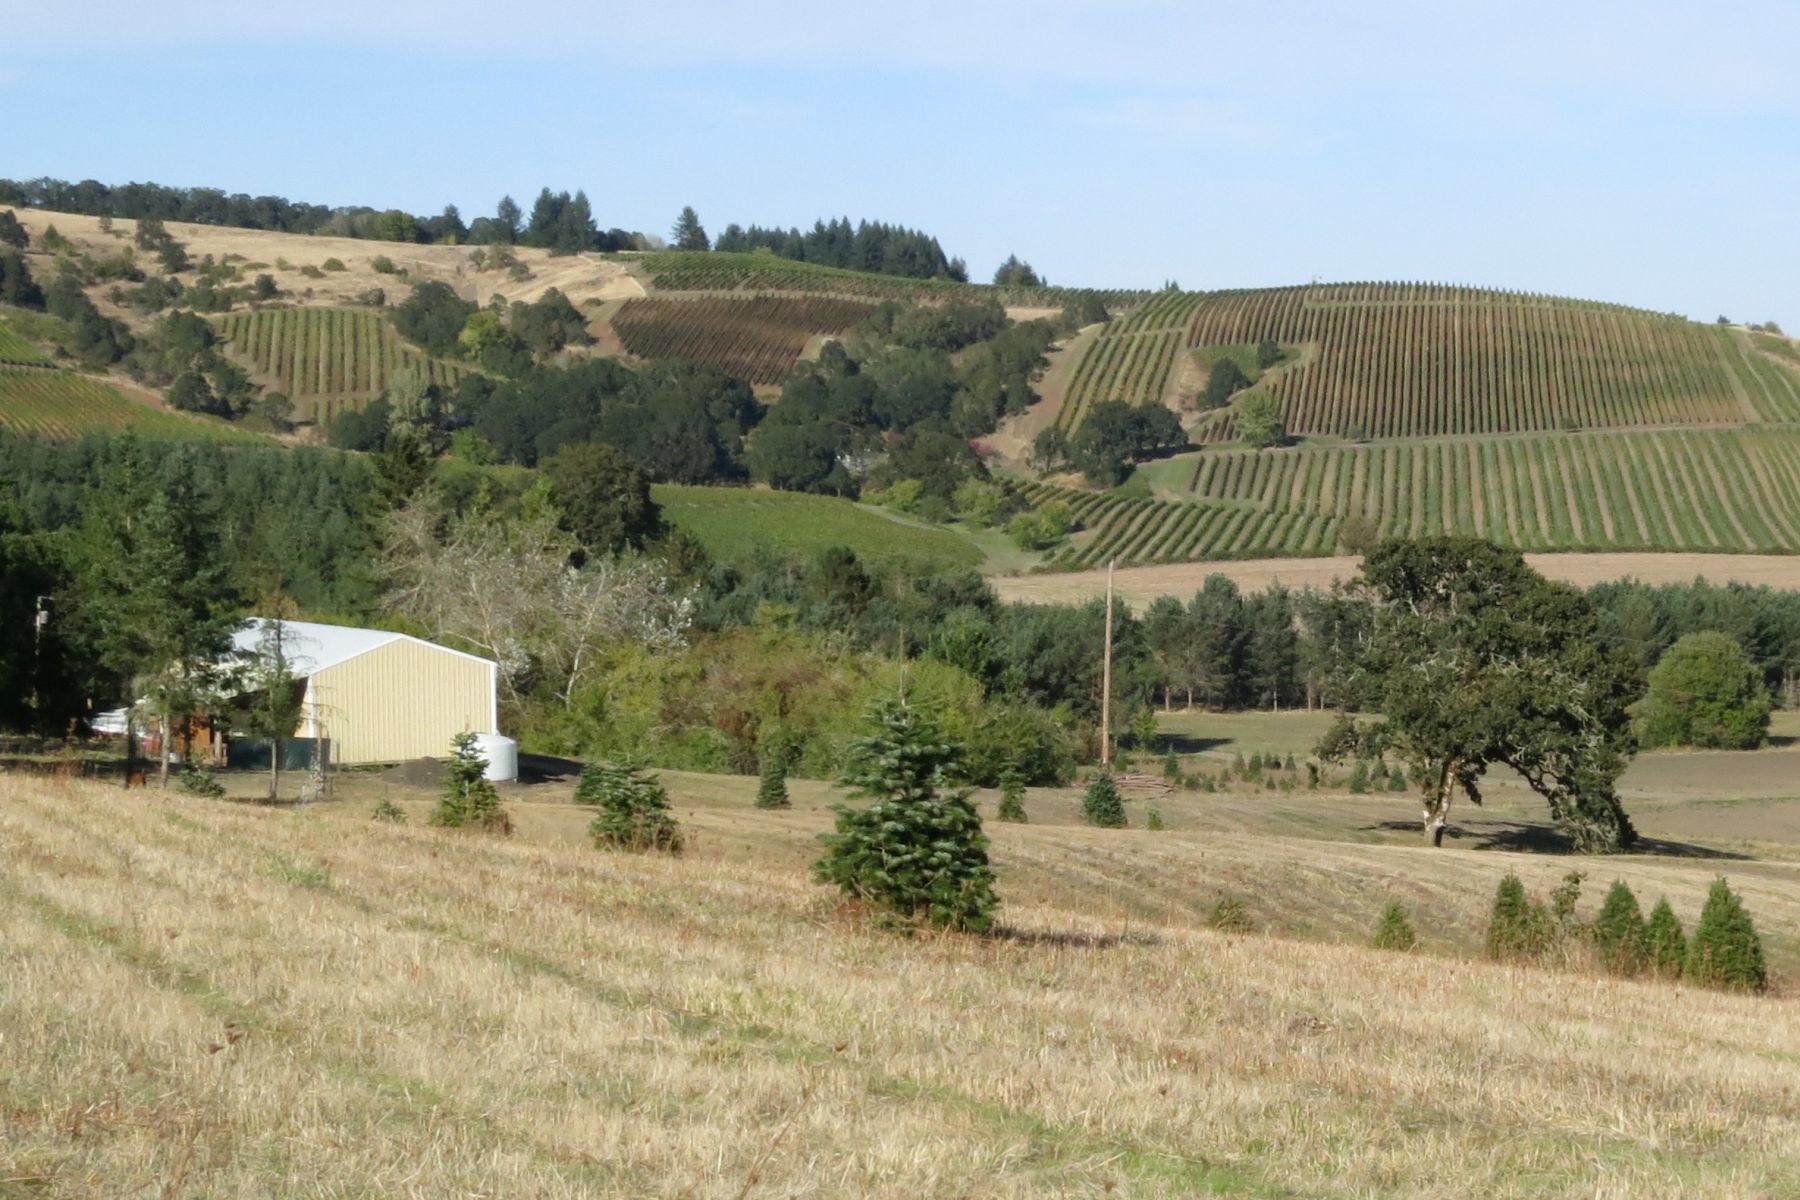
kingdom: Plantae
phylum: Tracheophyta
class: Magnoliopsida
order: Fagales
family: Fagaceae
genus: Quercus
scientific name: Quercus garryana
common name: Garry oak
